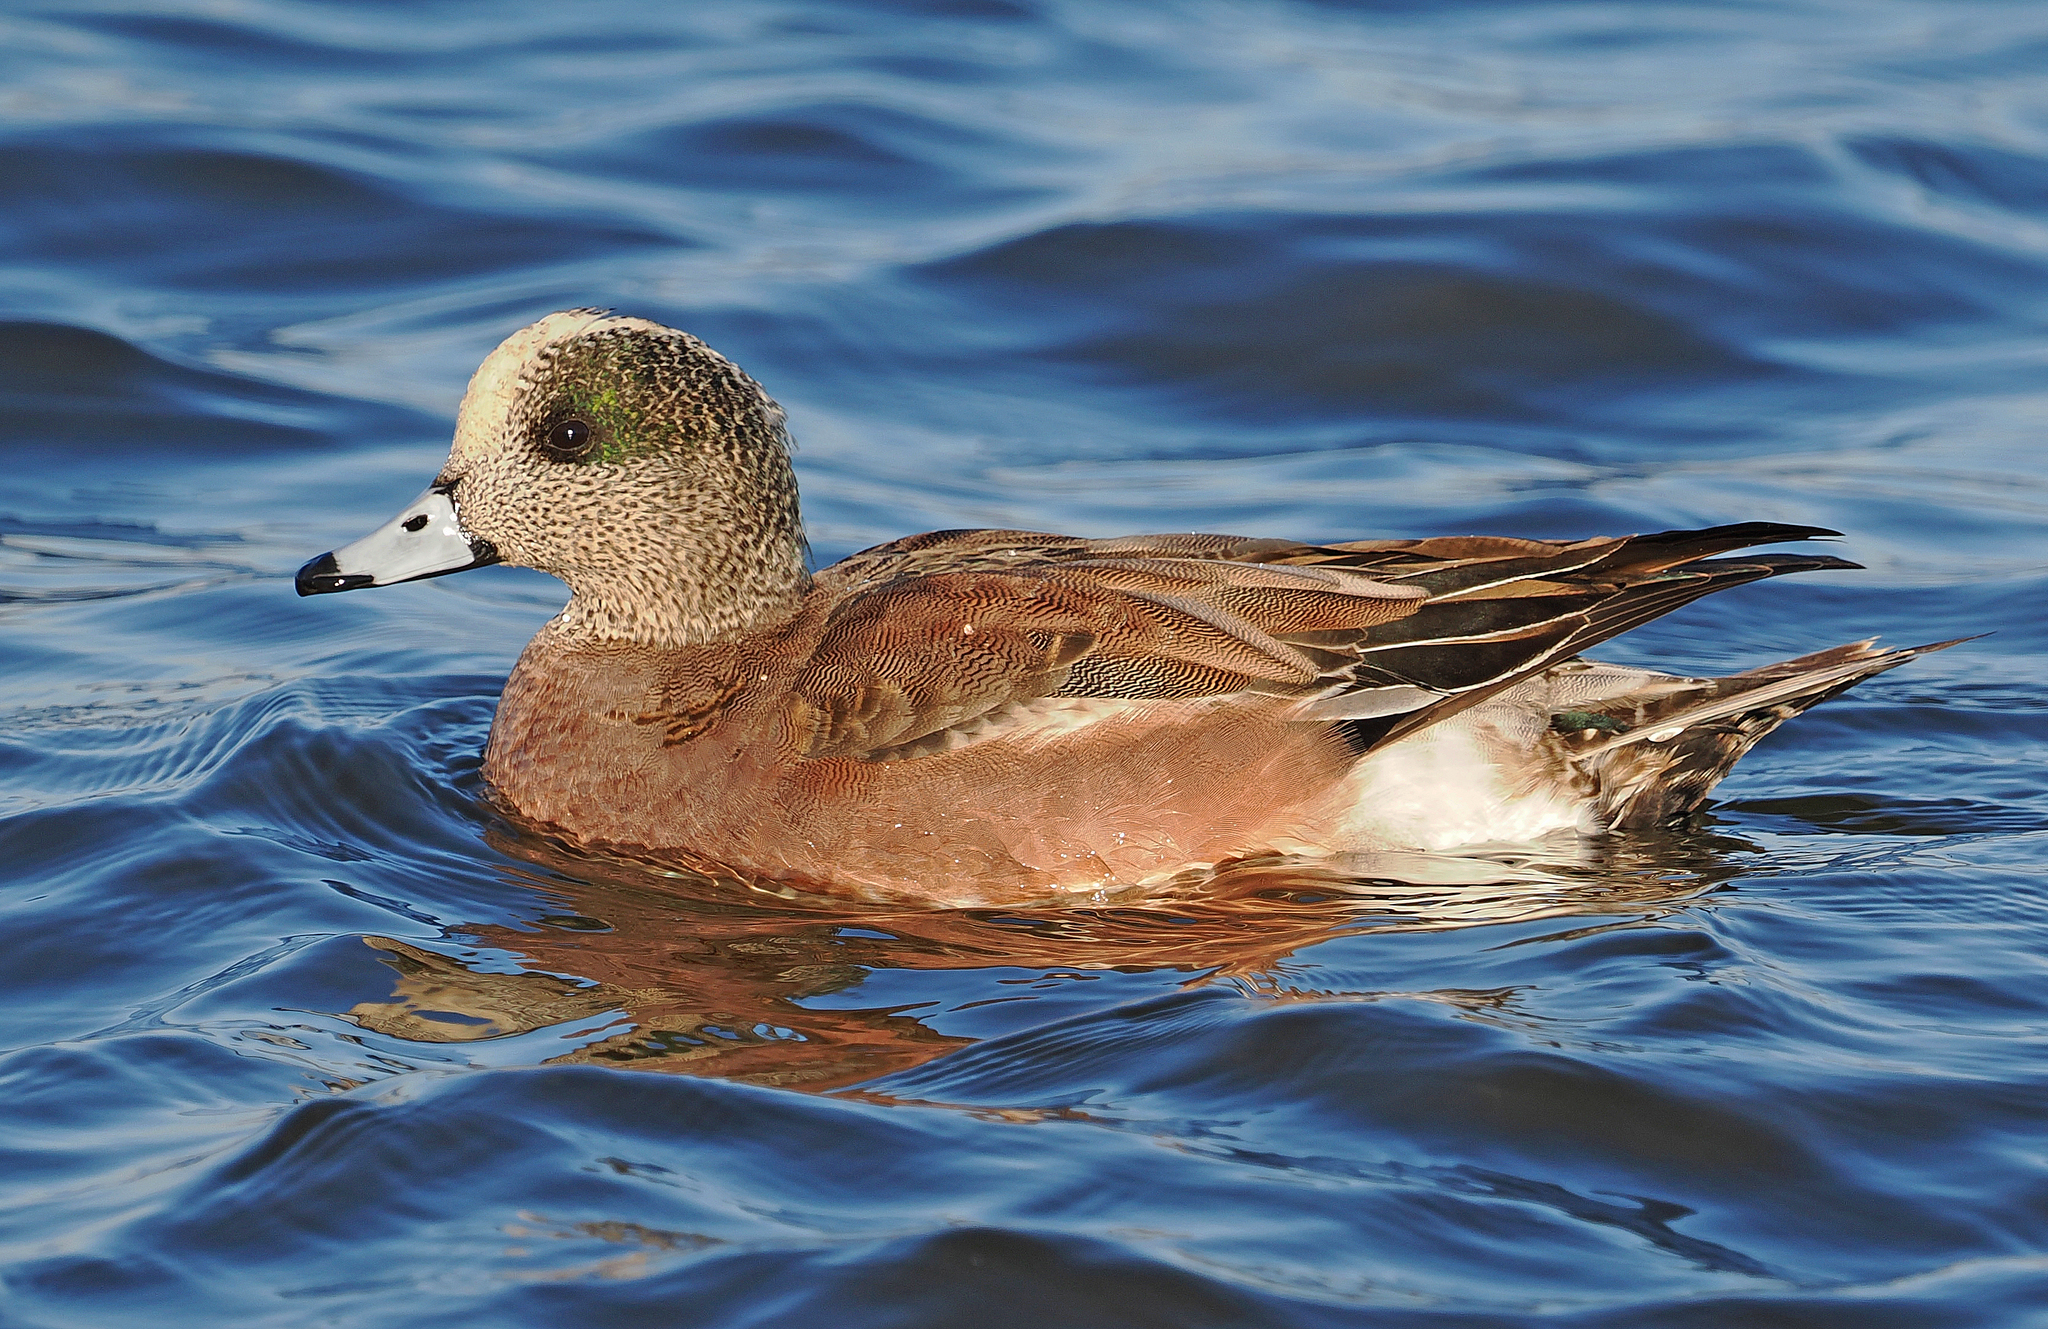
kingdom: Animalia
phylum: Chordata
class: Aves
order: Anseriformes
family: Anatidae
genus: Mareca
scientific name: Mareca americana
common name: American wigeon
